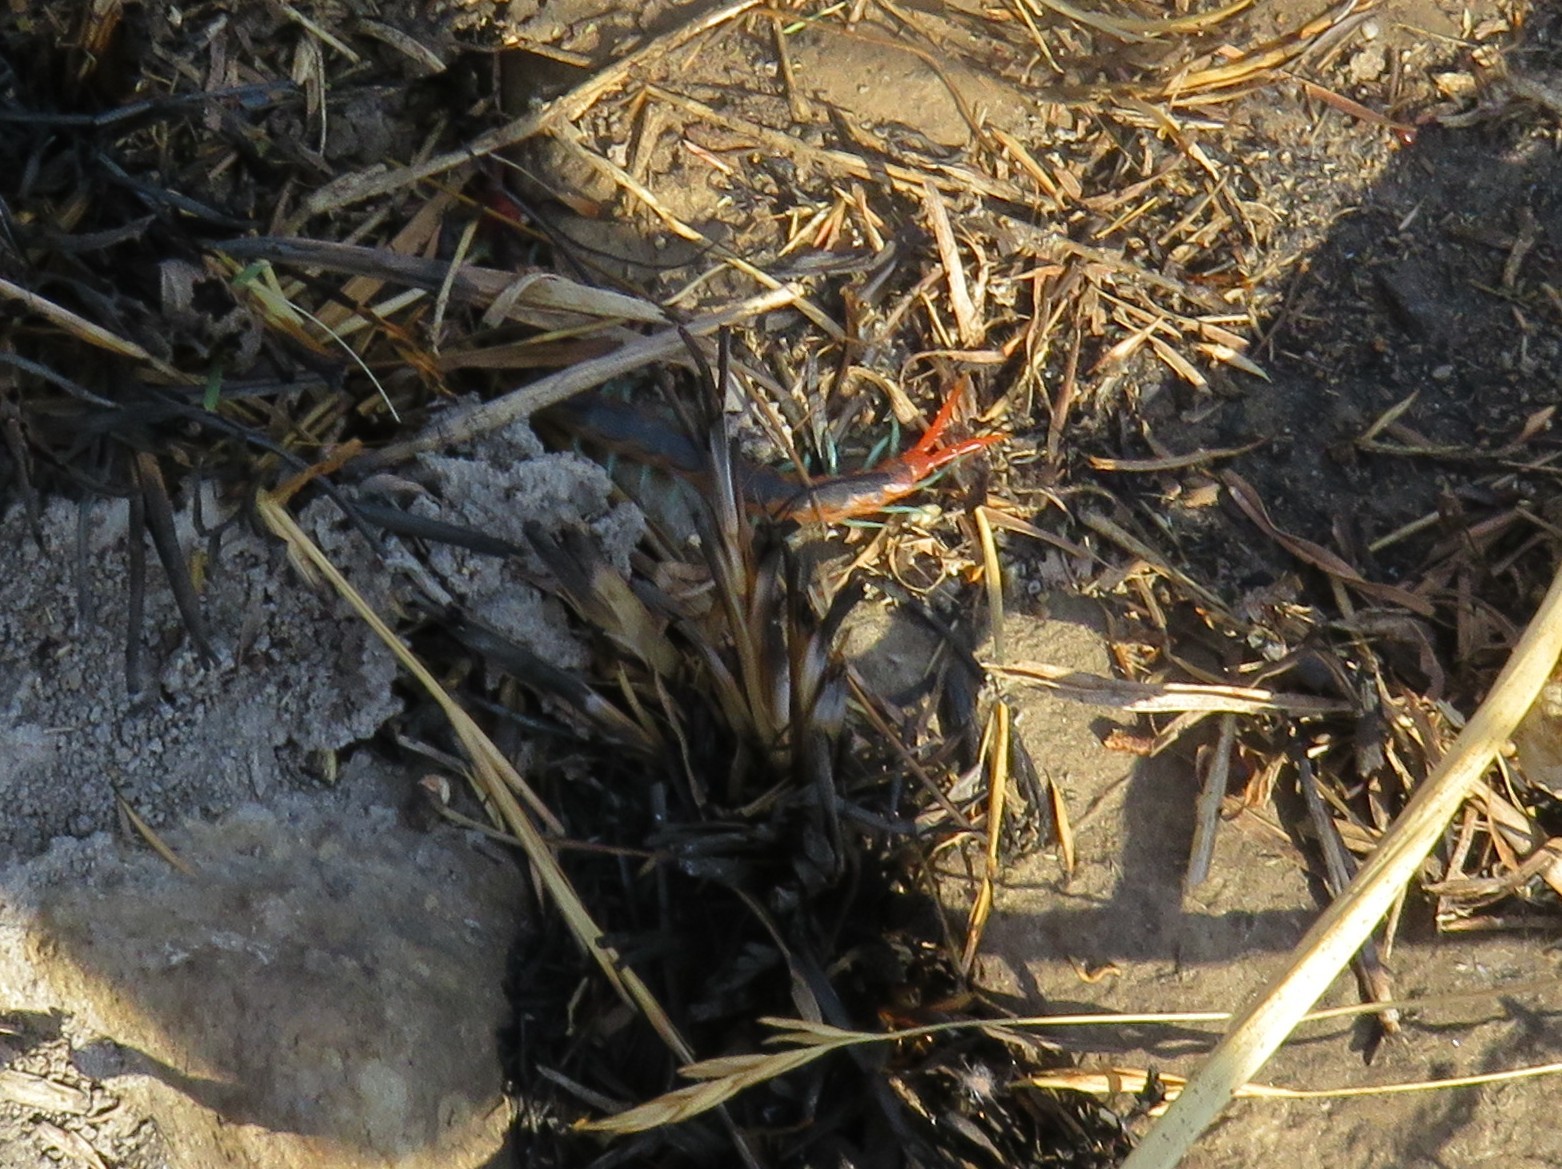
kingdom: Animalia
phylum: Arthropoda
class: Chilopoda
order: Scolopendromorpha
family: Scolopendridae
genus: Scolopendra
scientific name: Scolopendra morsitans
